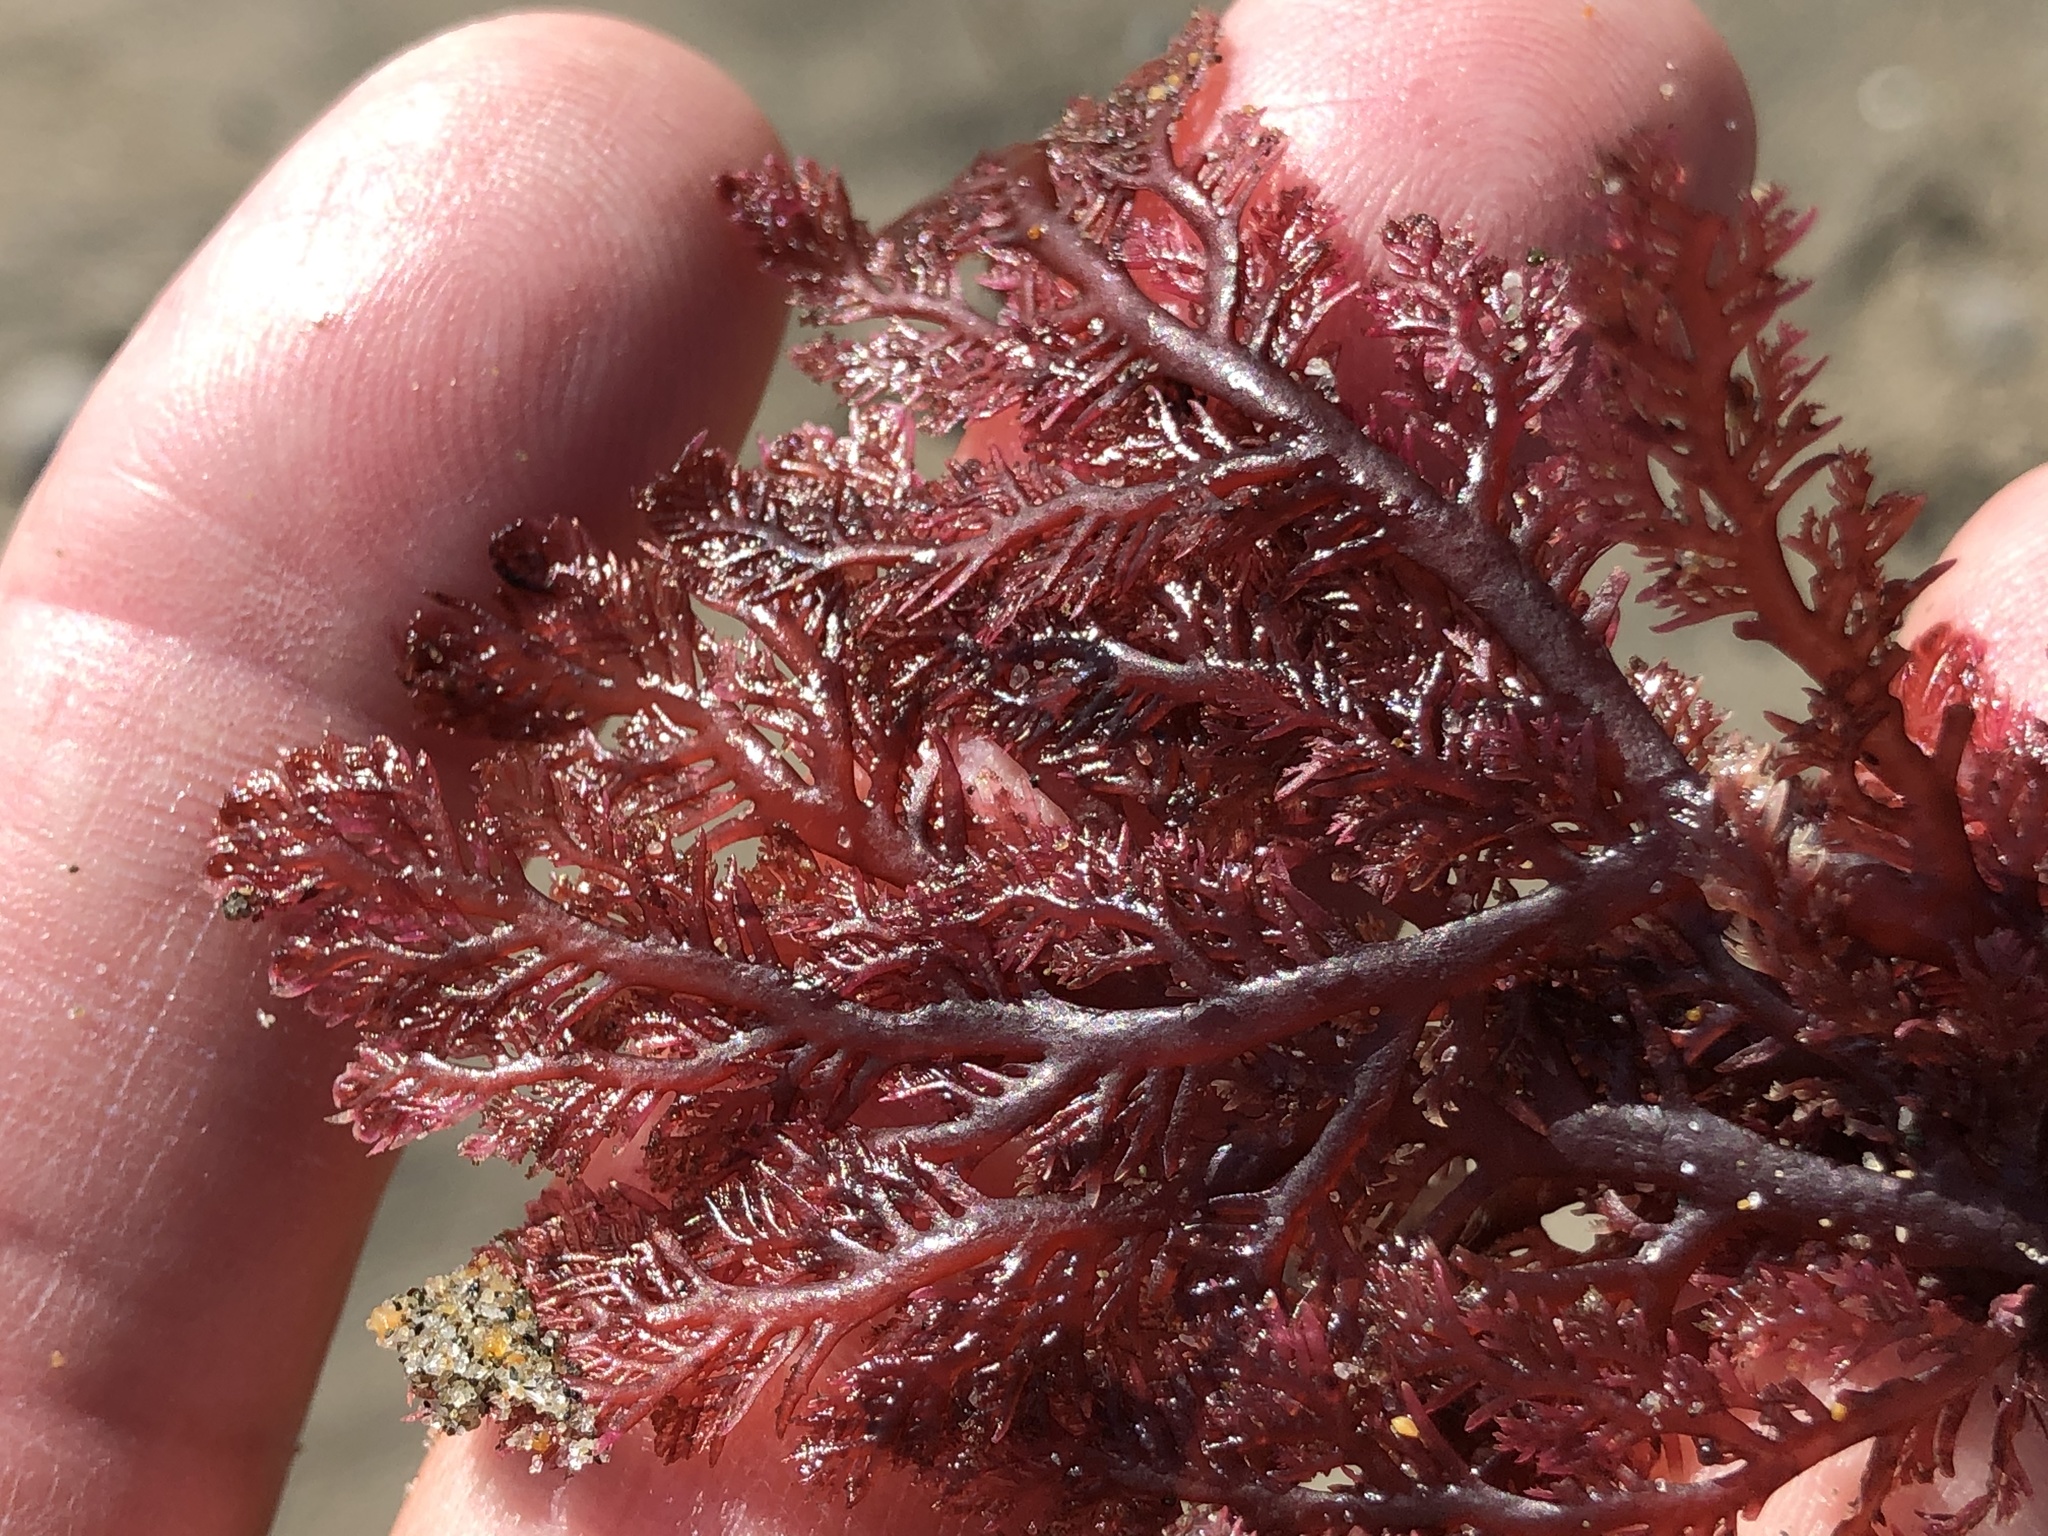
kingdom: Plantae
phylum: Rhodophyta
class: Florideophyceae
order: Plocamiales
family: Plocamiaceae
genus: Plocamium
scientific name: Plocamium cartilagineum
